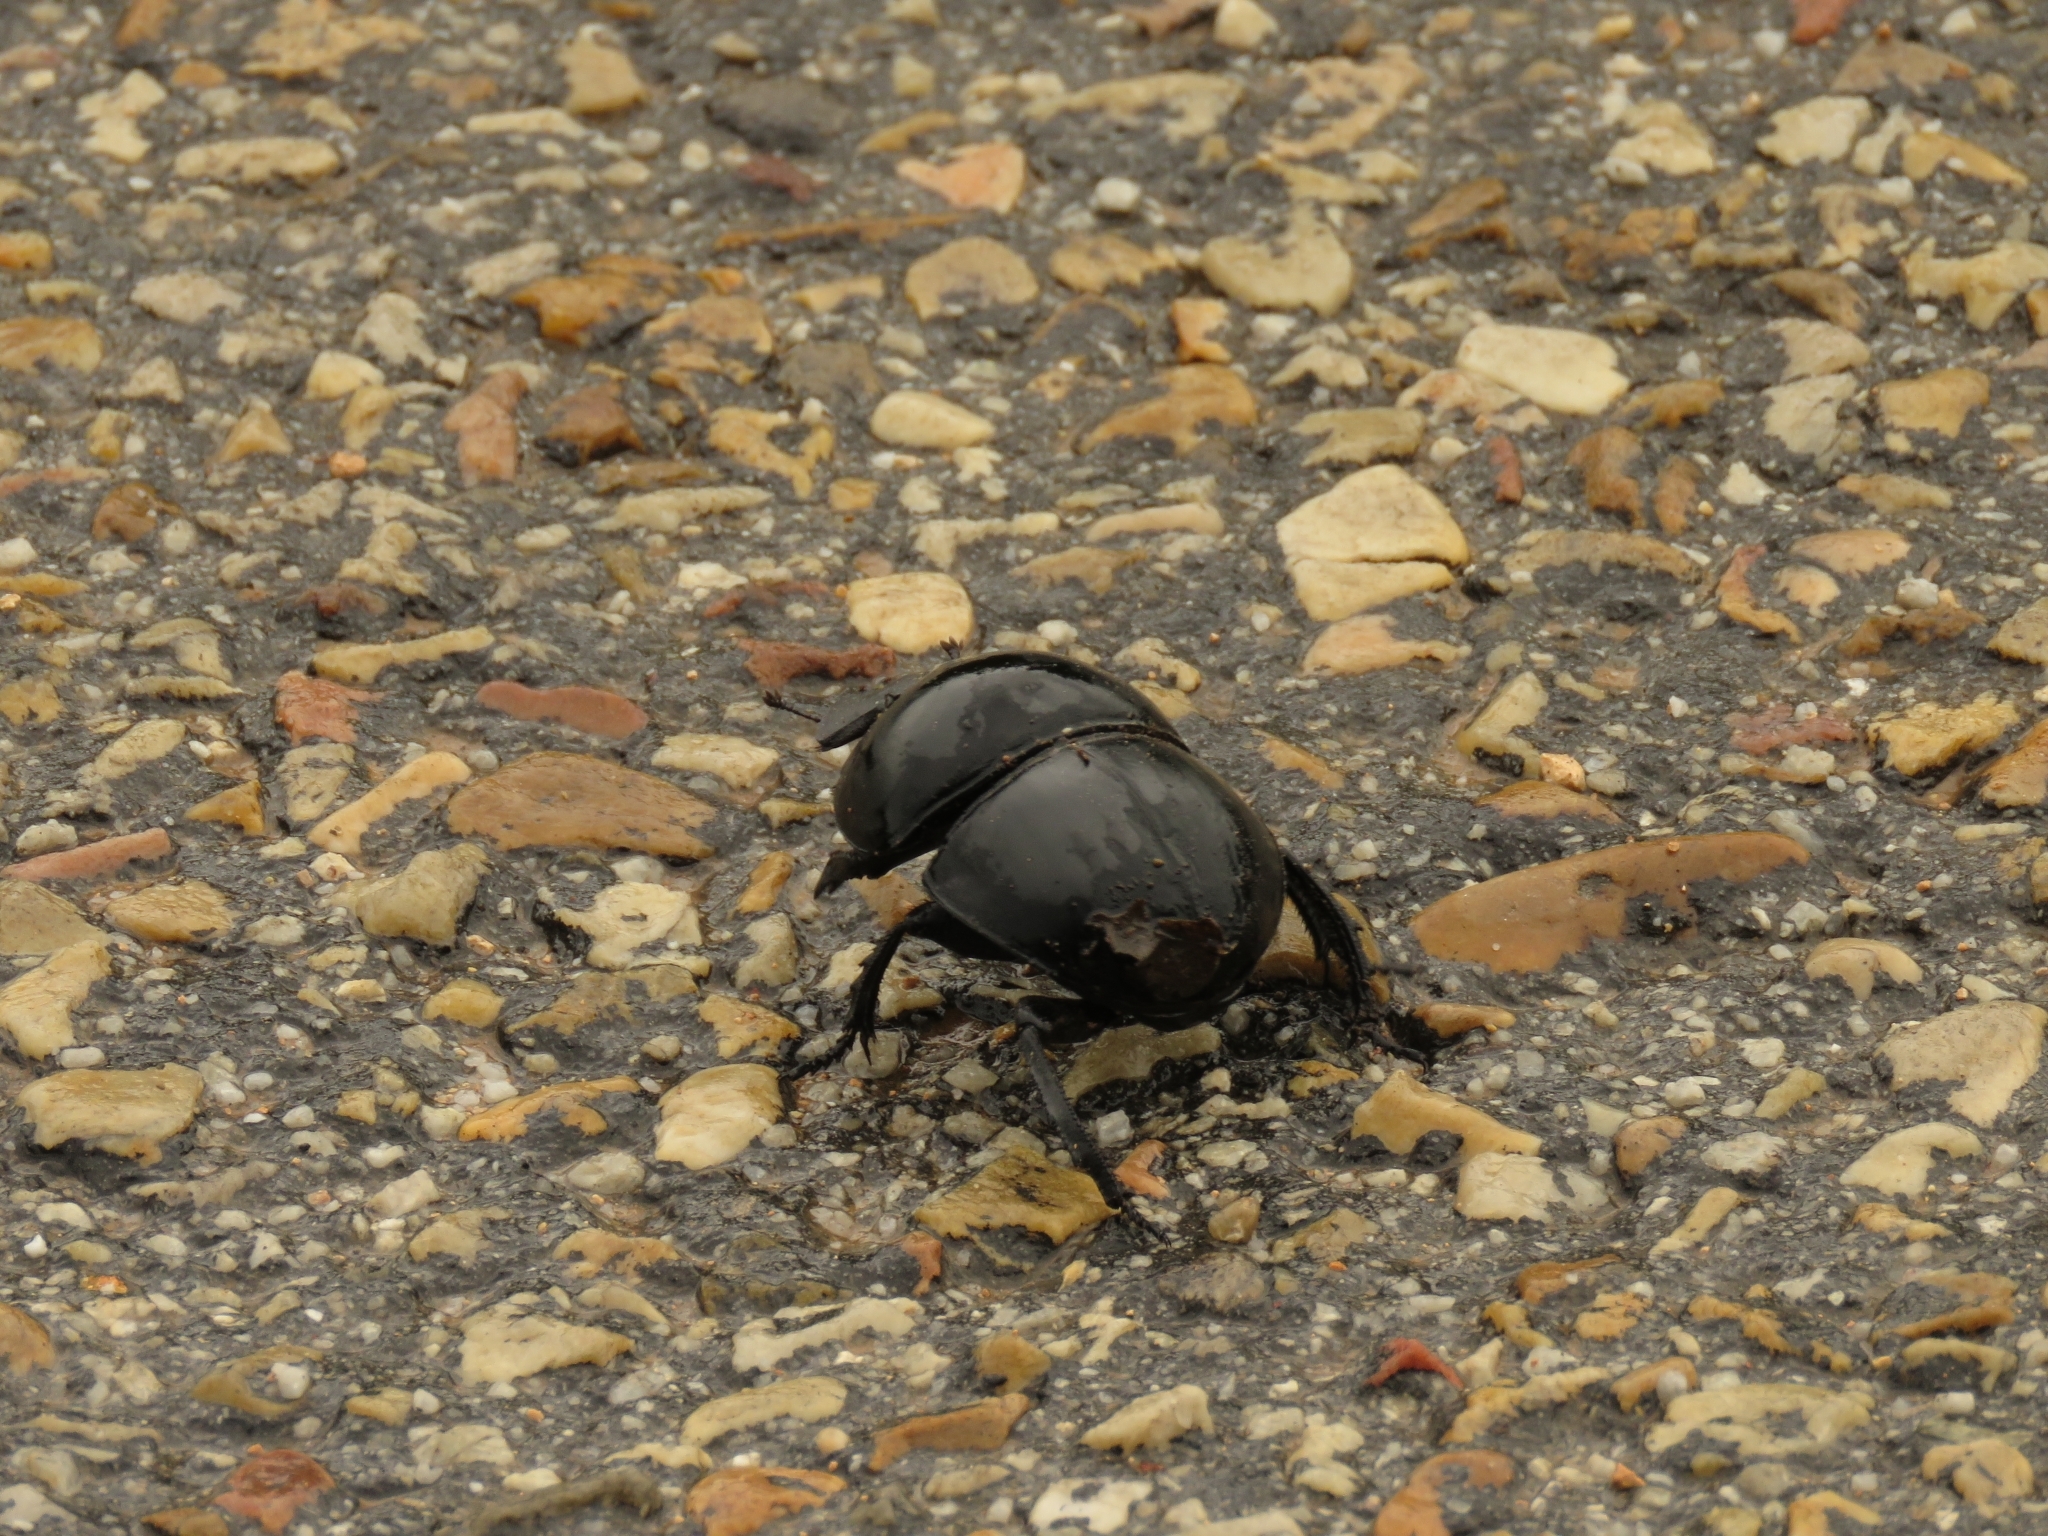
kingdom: Animalia
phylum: Arthropoda
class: Insecta
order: Coleoptera
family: Scarabaeidae
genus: Circellium
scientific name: Circellium bacchus
